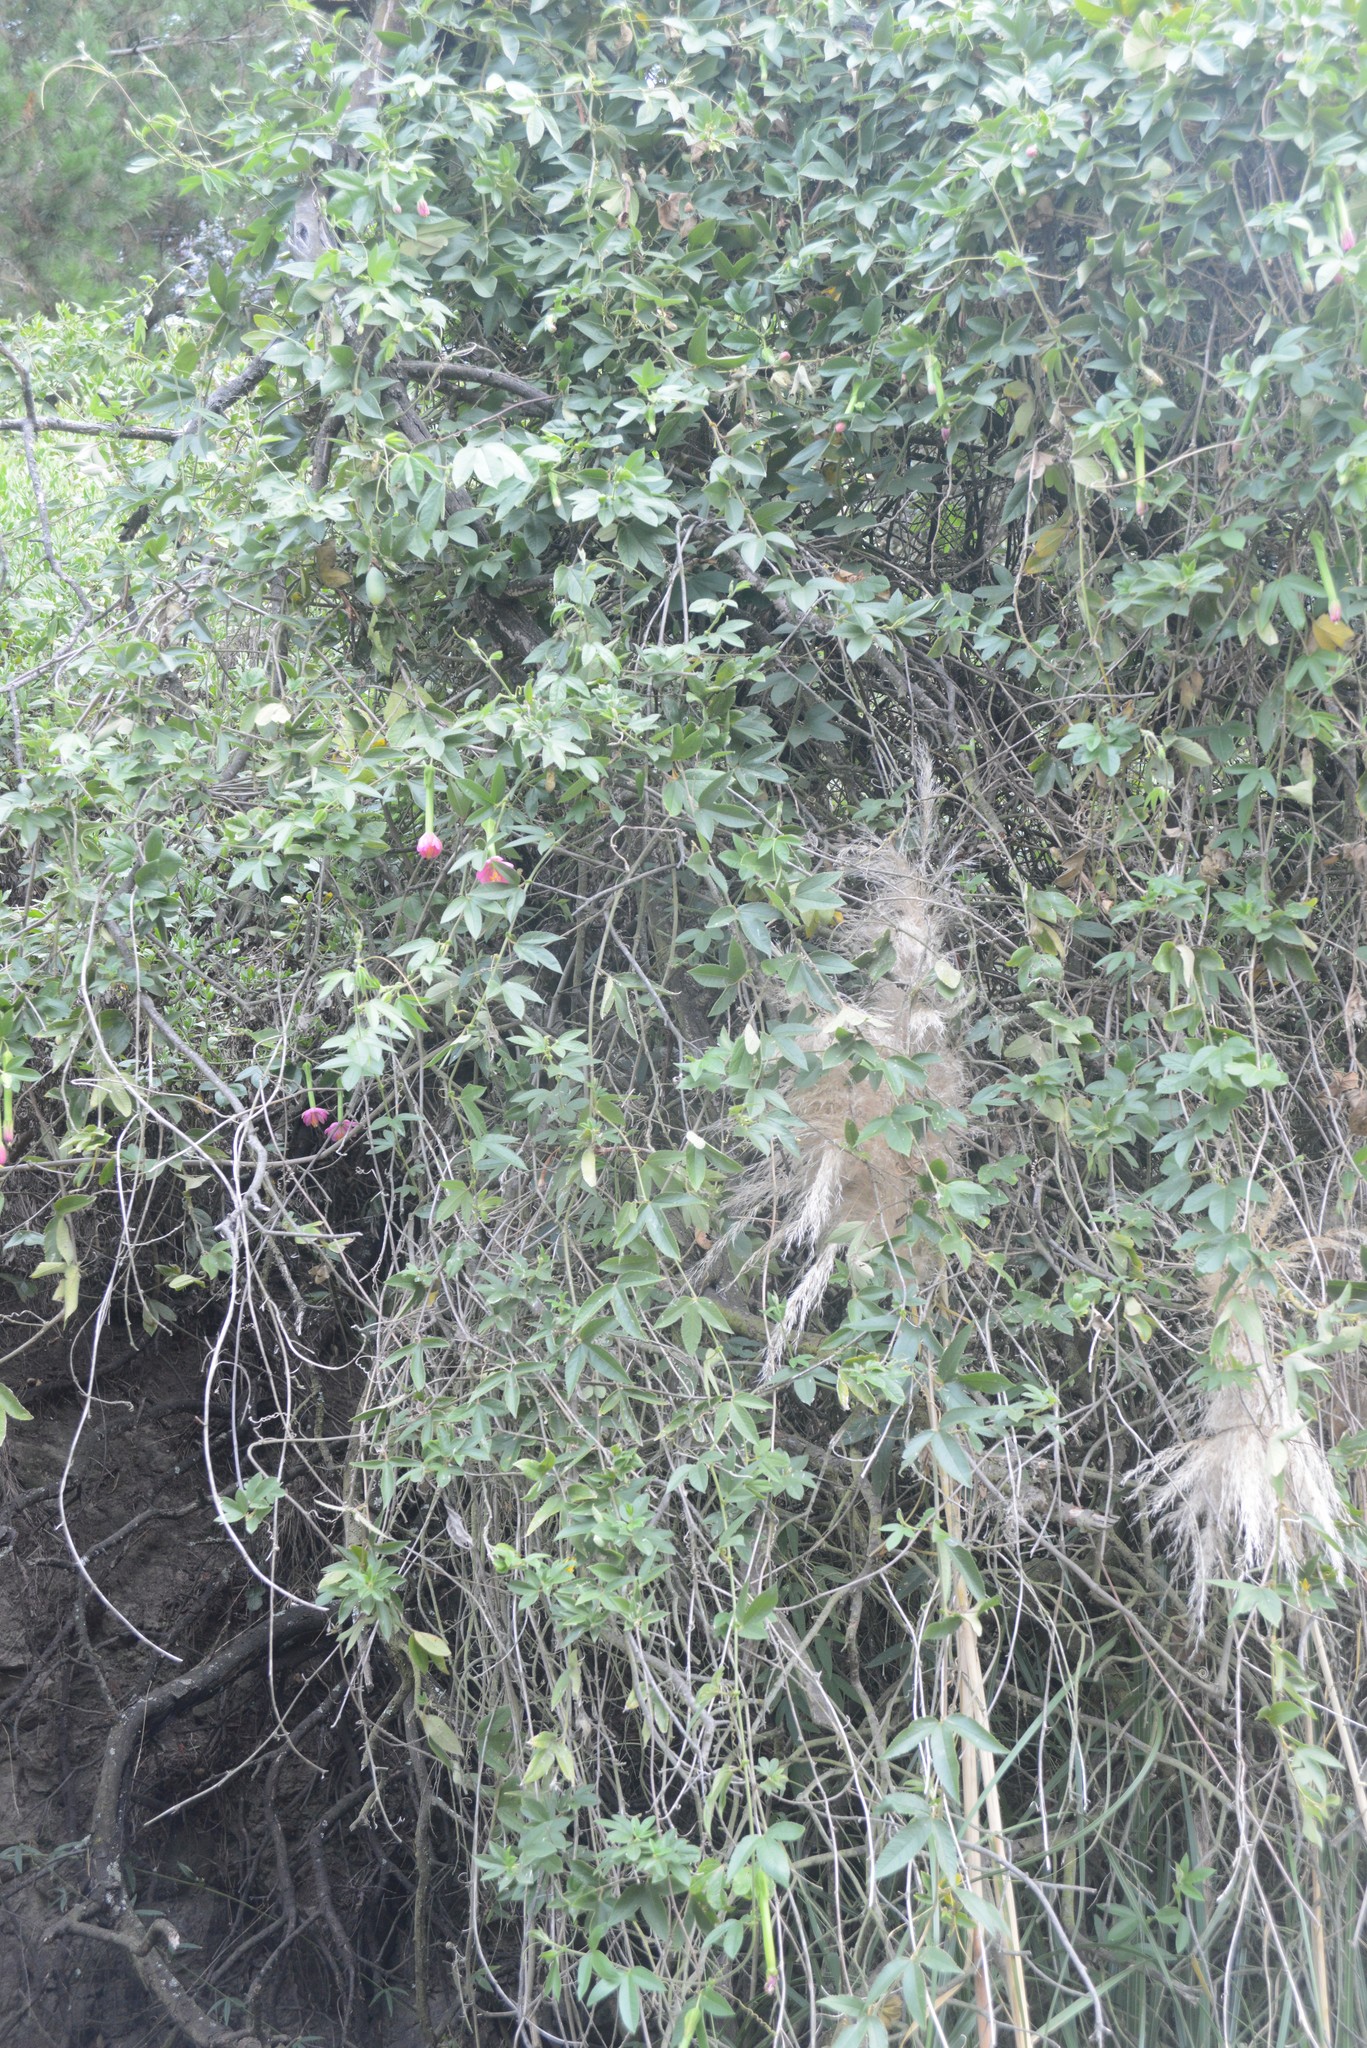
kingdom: Plantae
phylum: Tracheophyta
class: Magnoliopsida
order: Malpighiales
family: Passifloraceae
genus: Passiflora
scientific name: Passiflora tripartita
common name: Banana poka
